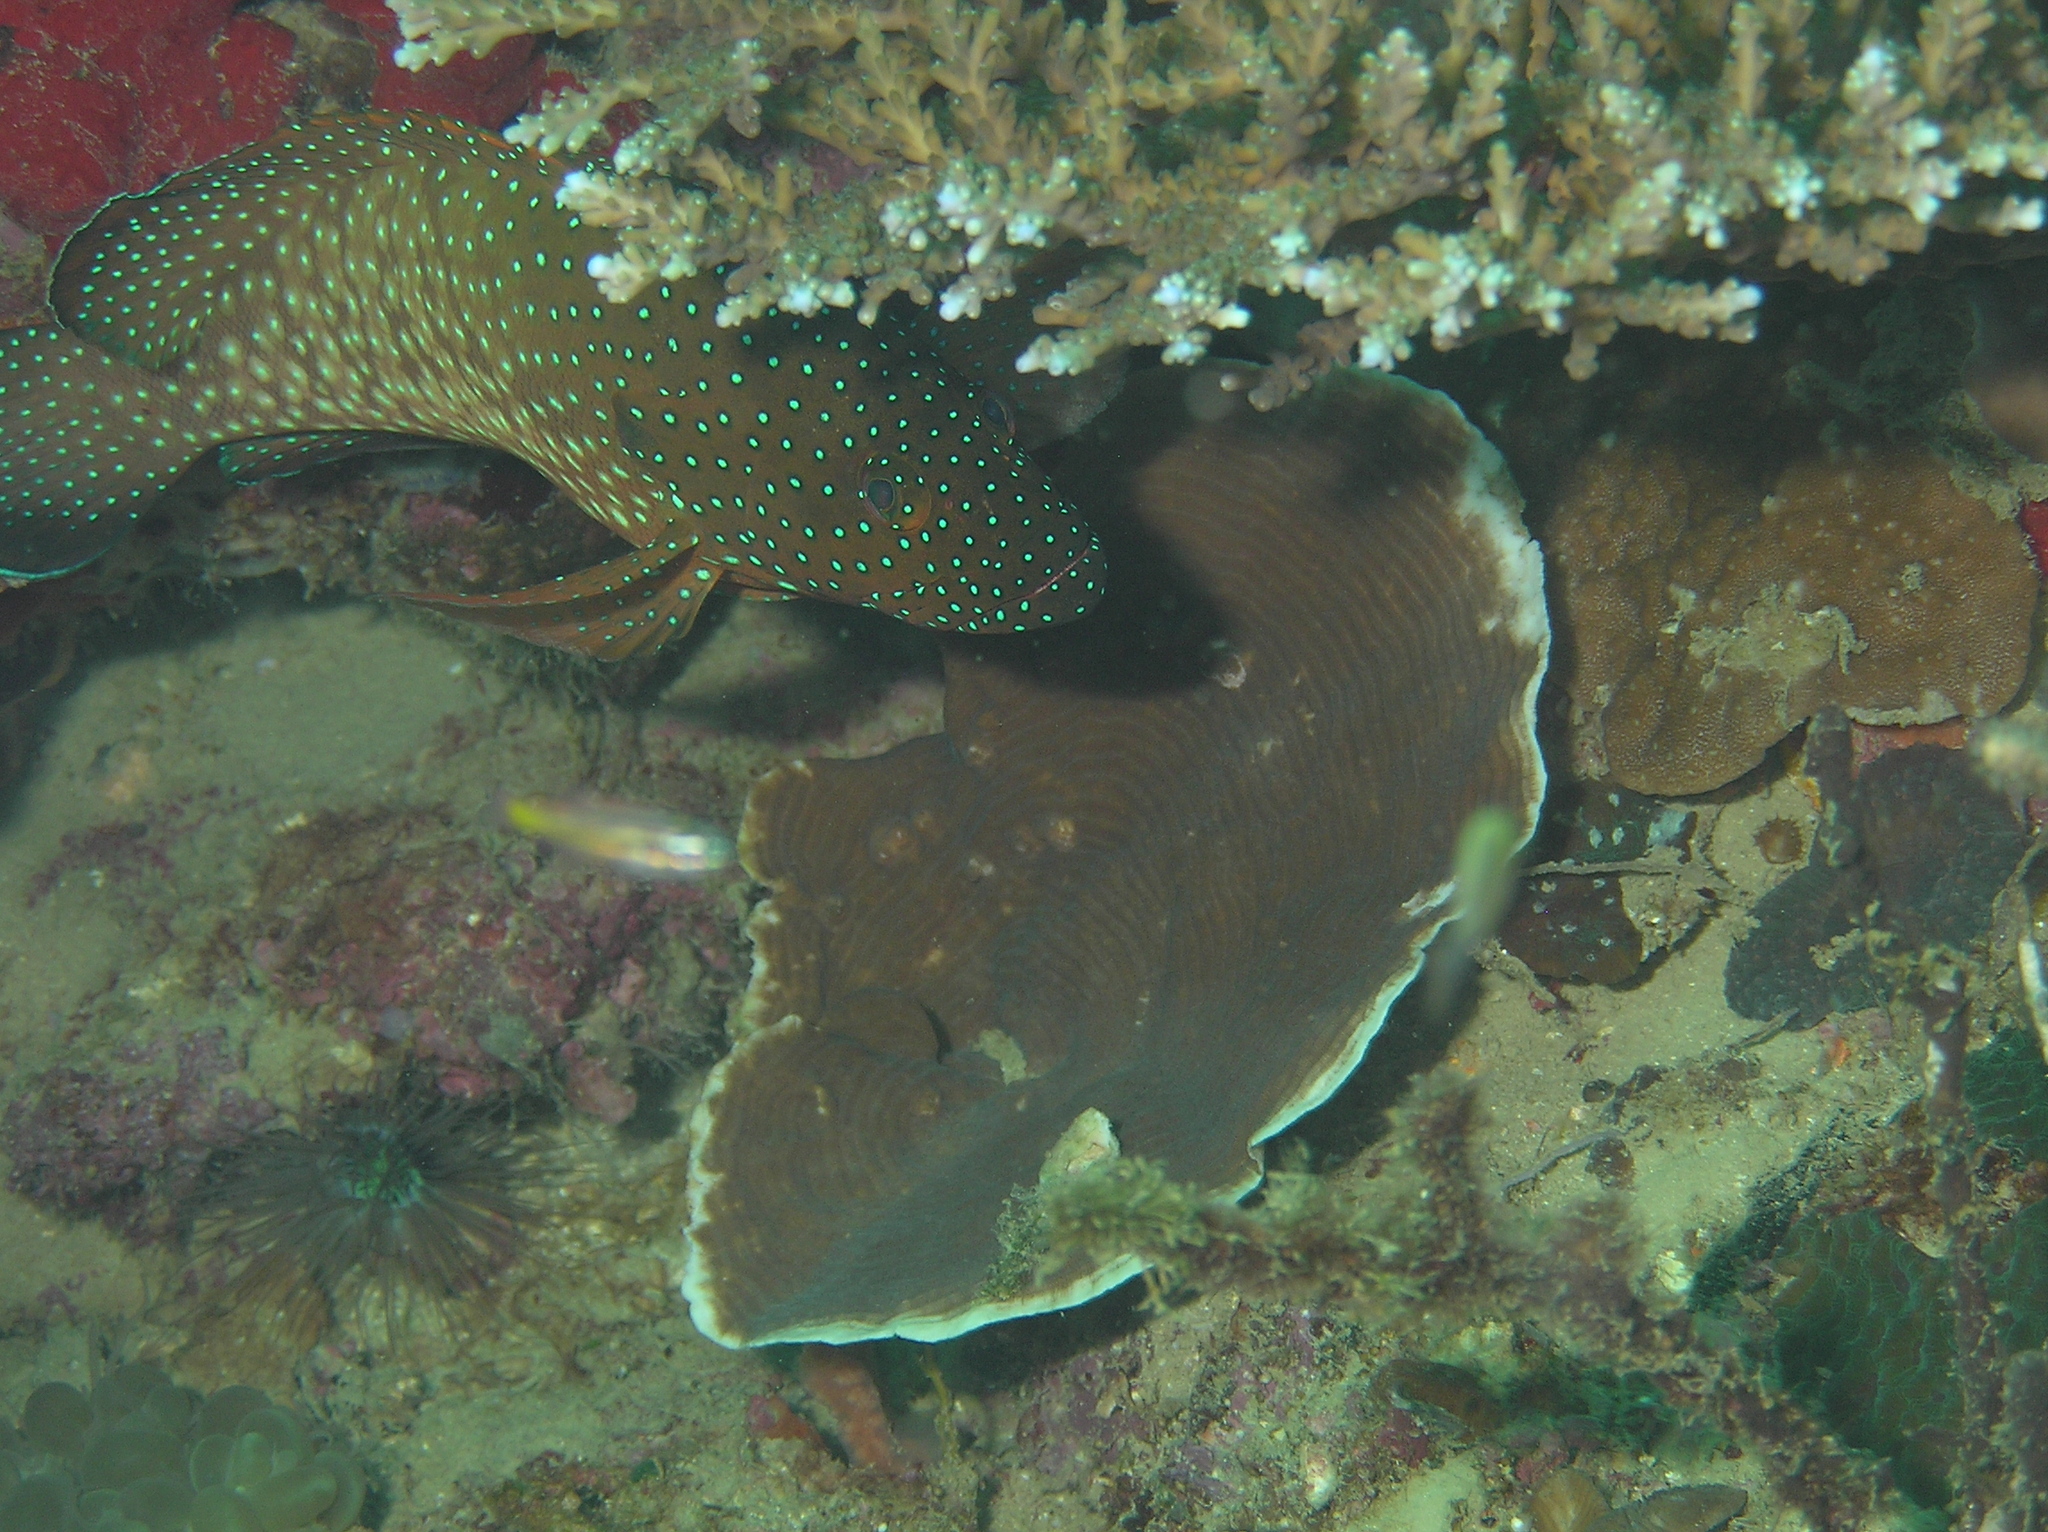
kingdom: Animalia
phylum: Chordata
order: Perciformes
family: Serranidae
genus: Cephalopholis
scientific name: Cephalopholis cyanostigma
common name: Bluespotted hind
